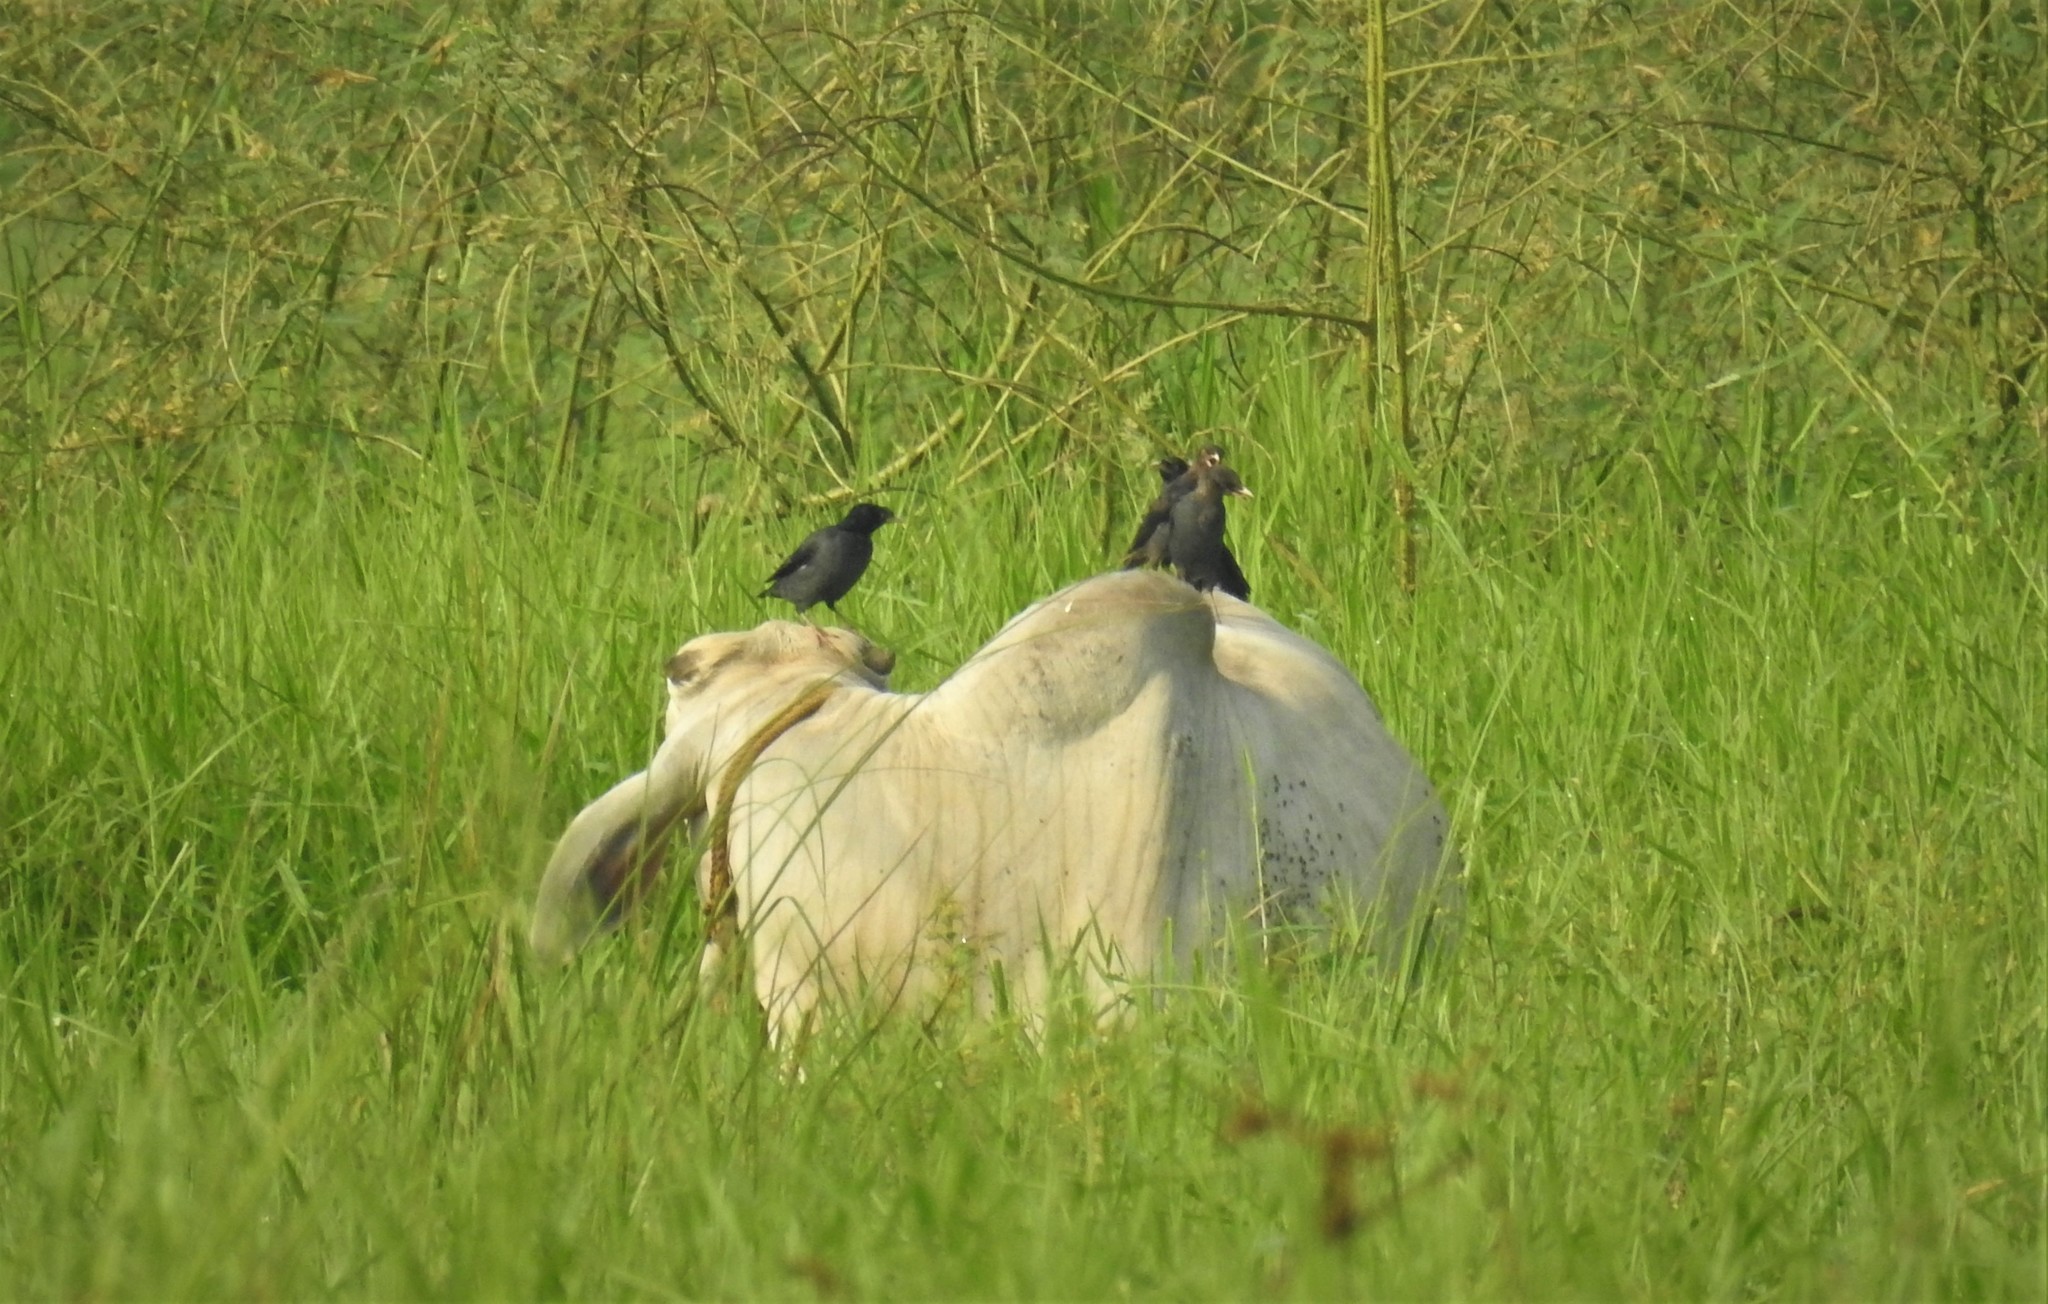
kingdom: Animalia
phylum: Chordata
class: Aves
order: Passeriformes
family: Sturnidae
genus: Acridotheres
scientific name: Acridotheres cristatellus
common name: Crested myna
